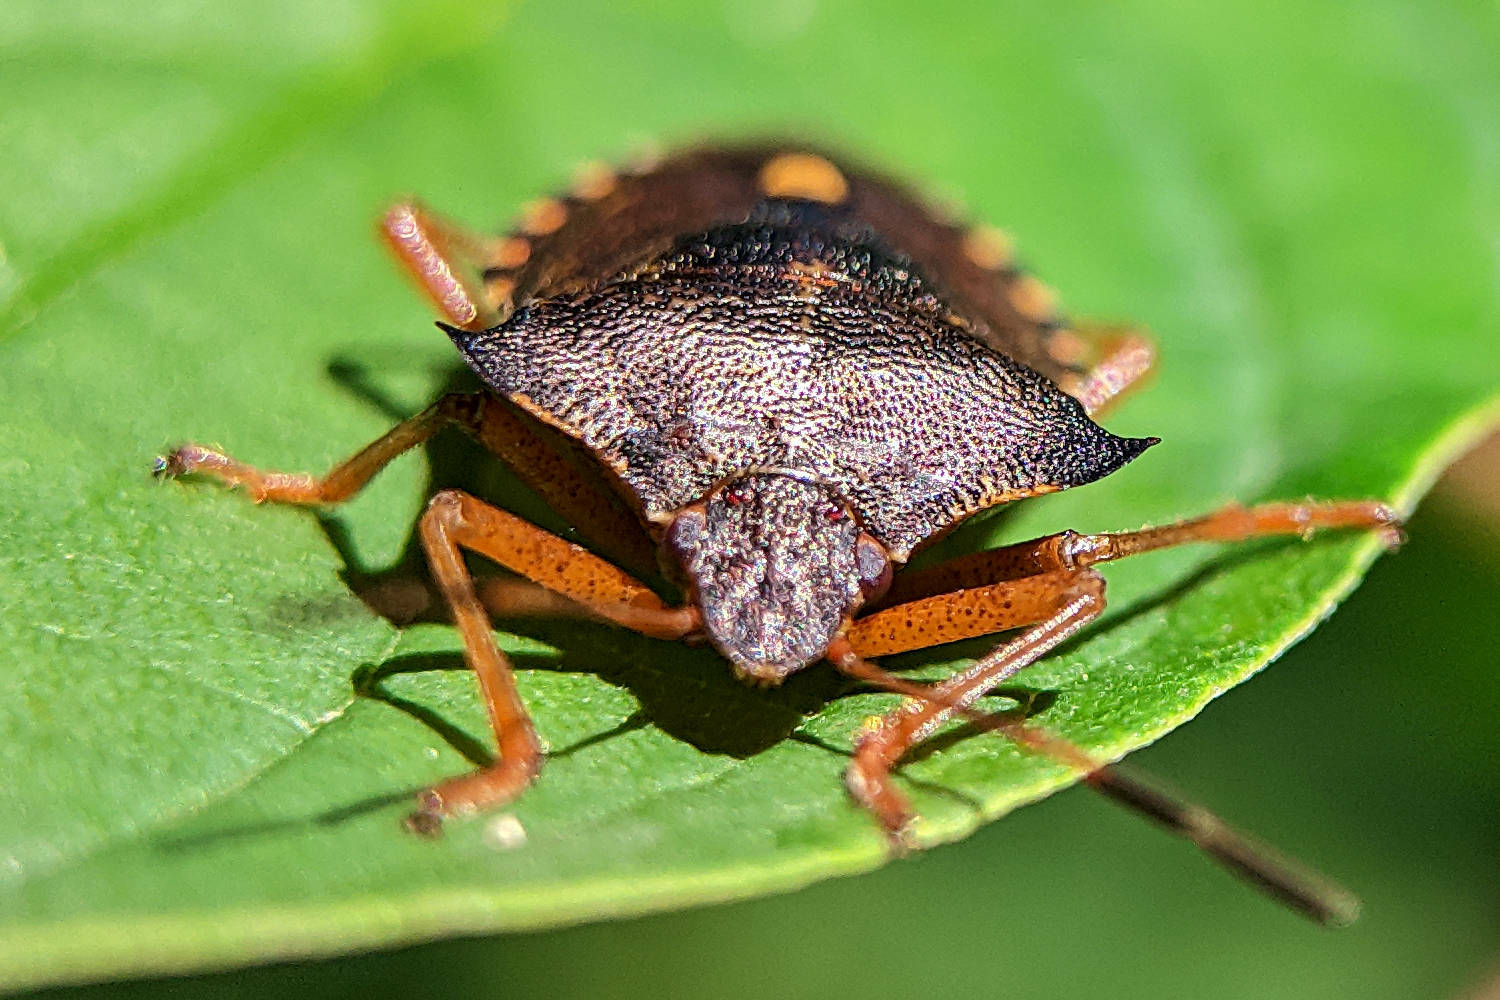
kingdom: Animalia
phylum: Arthropoda
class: Insecta
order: Hemiptera
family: Pentatomidae
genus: Pentatoma
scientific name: Pentatoma rufipes
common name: Forest bug
